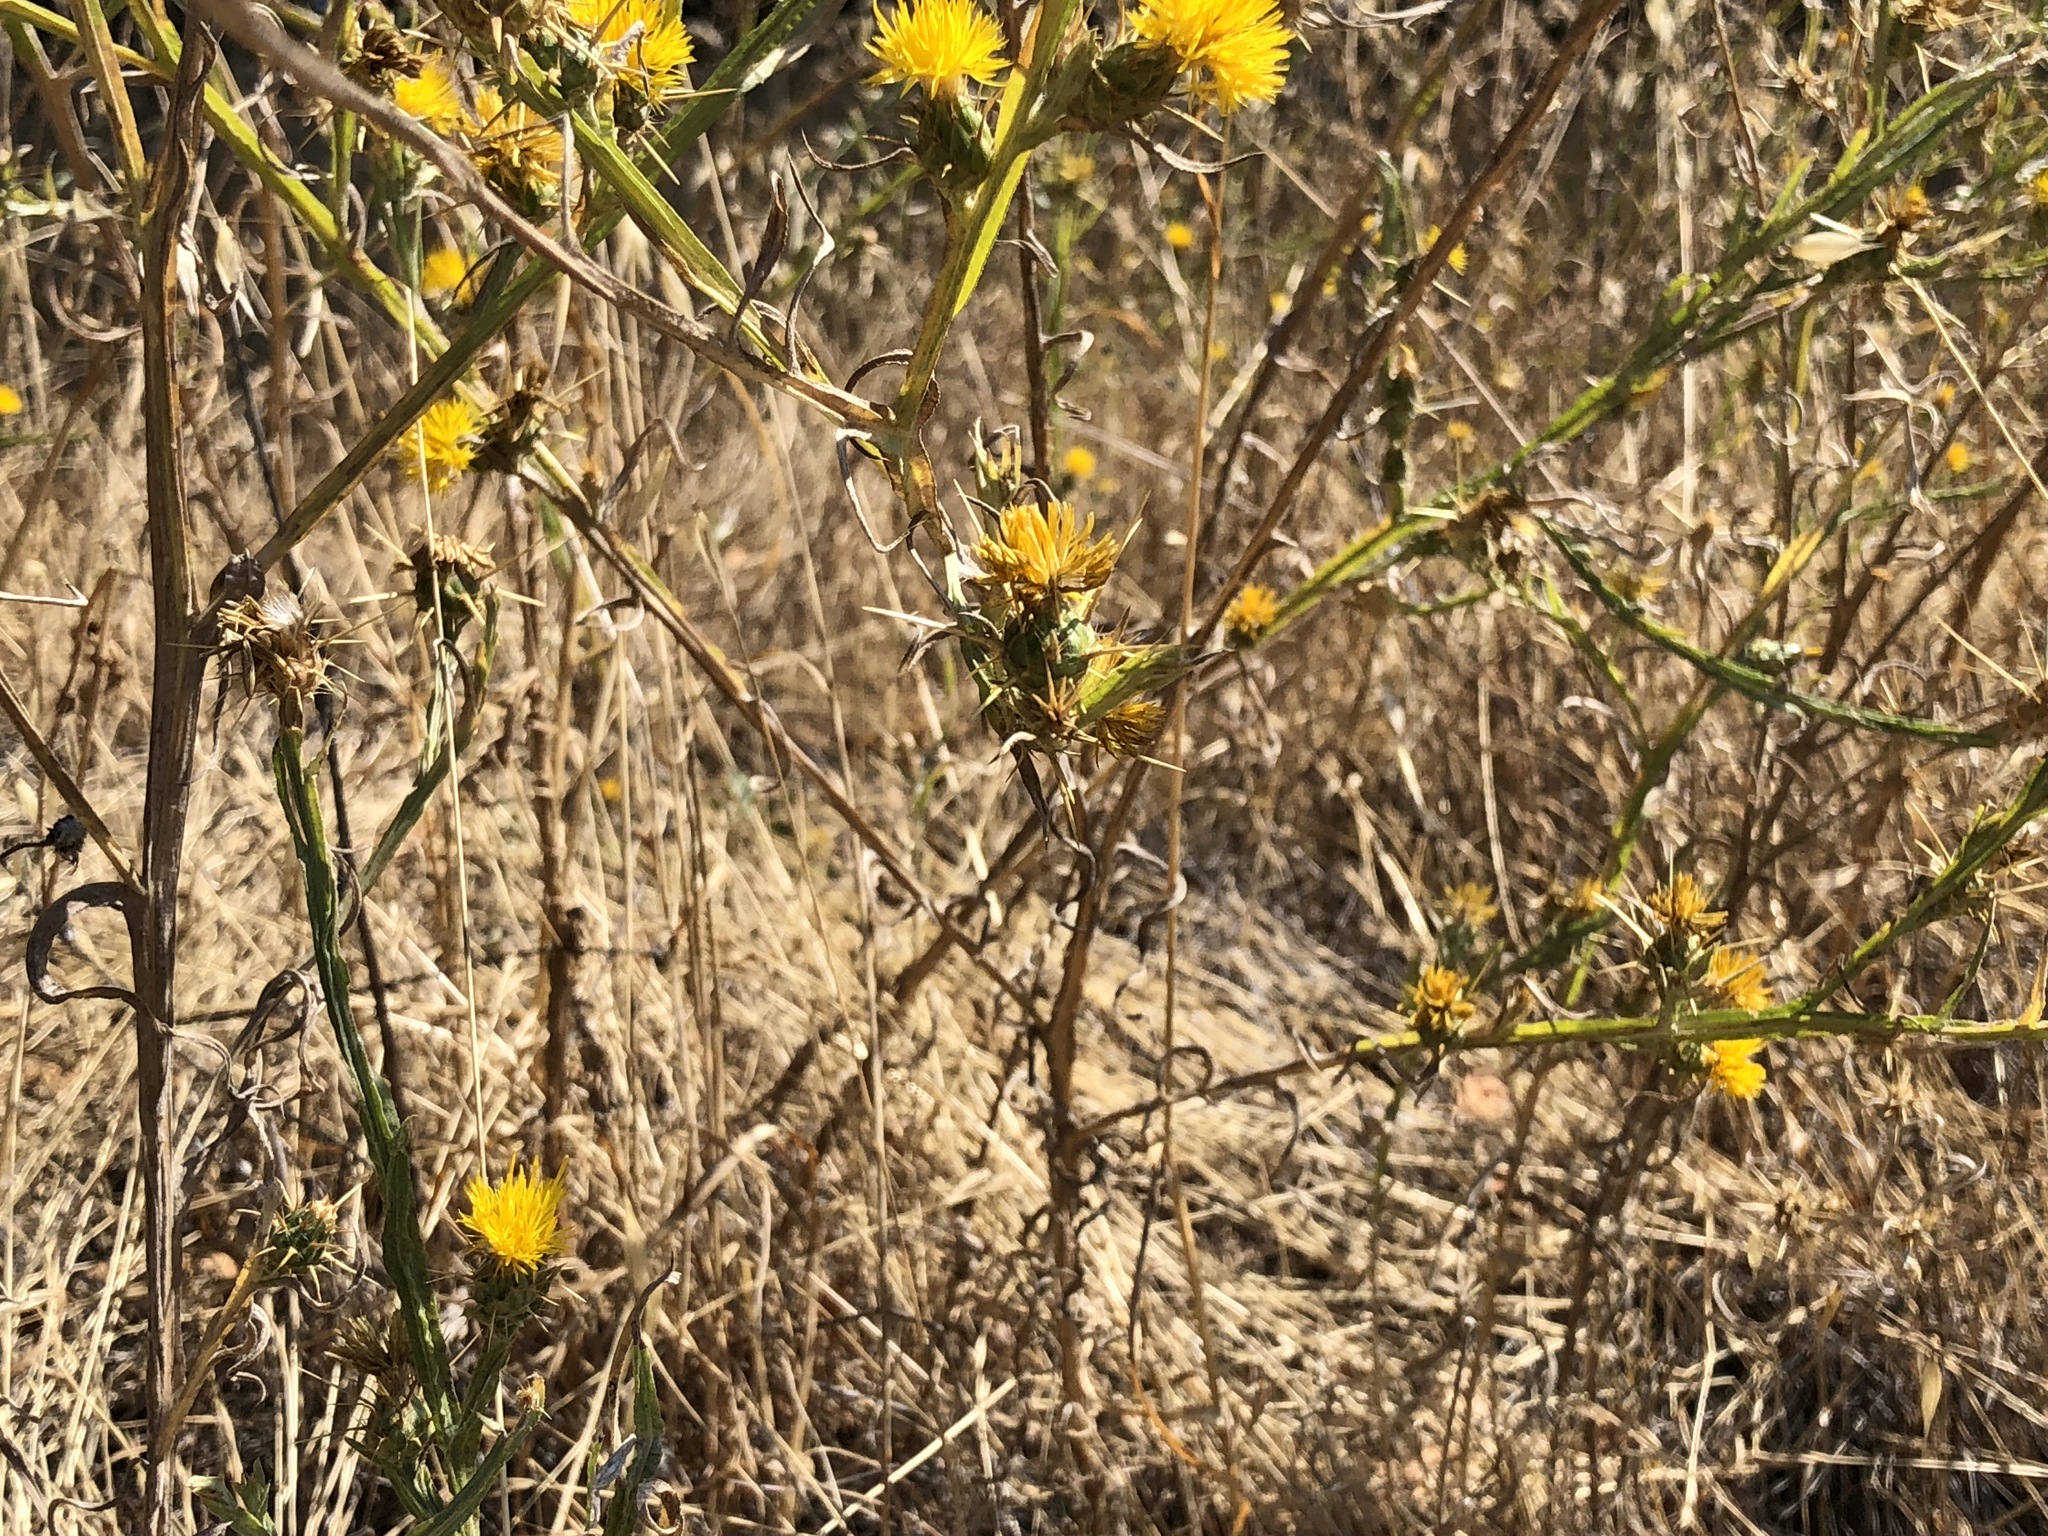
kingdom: Plantae
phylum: Tracheophyta
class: Magnoliopsida
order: Asterales
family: Asteraceae
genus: Centaurea
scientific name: Centaurea solstitialis
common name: Yellow star-thistle
